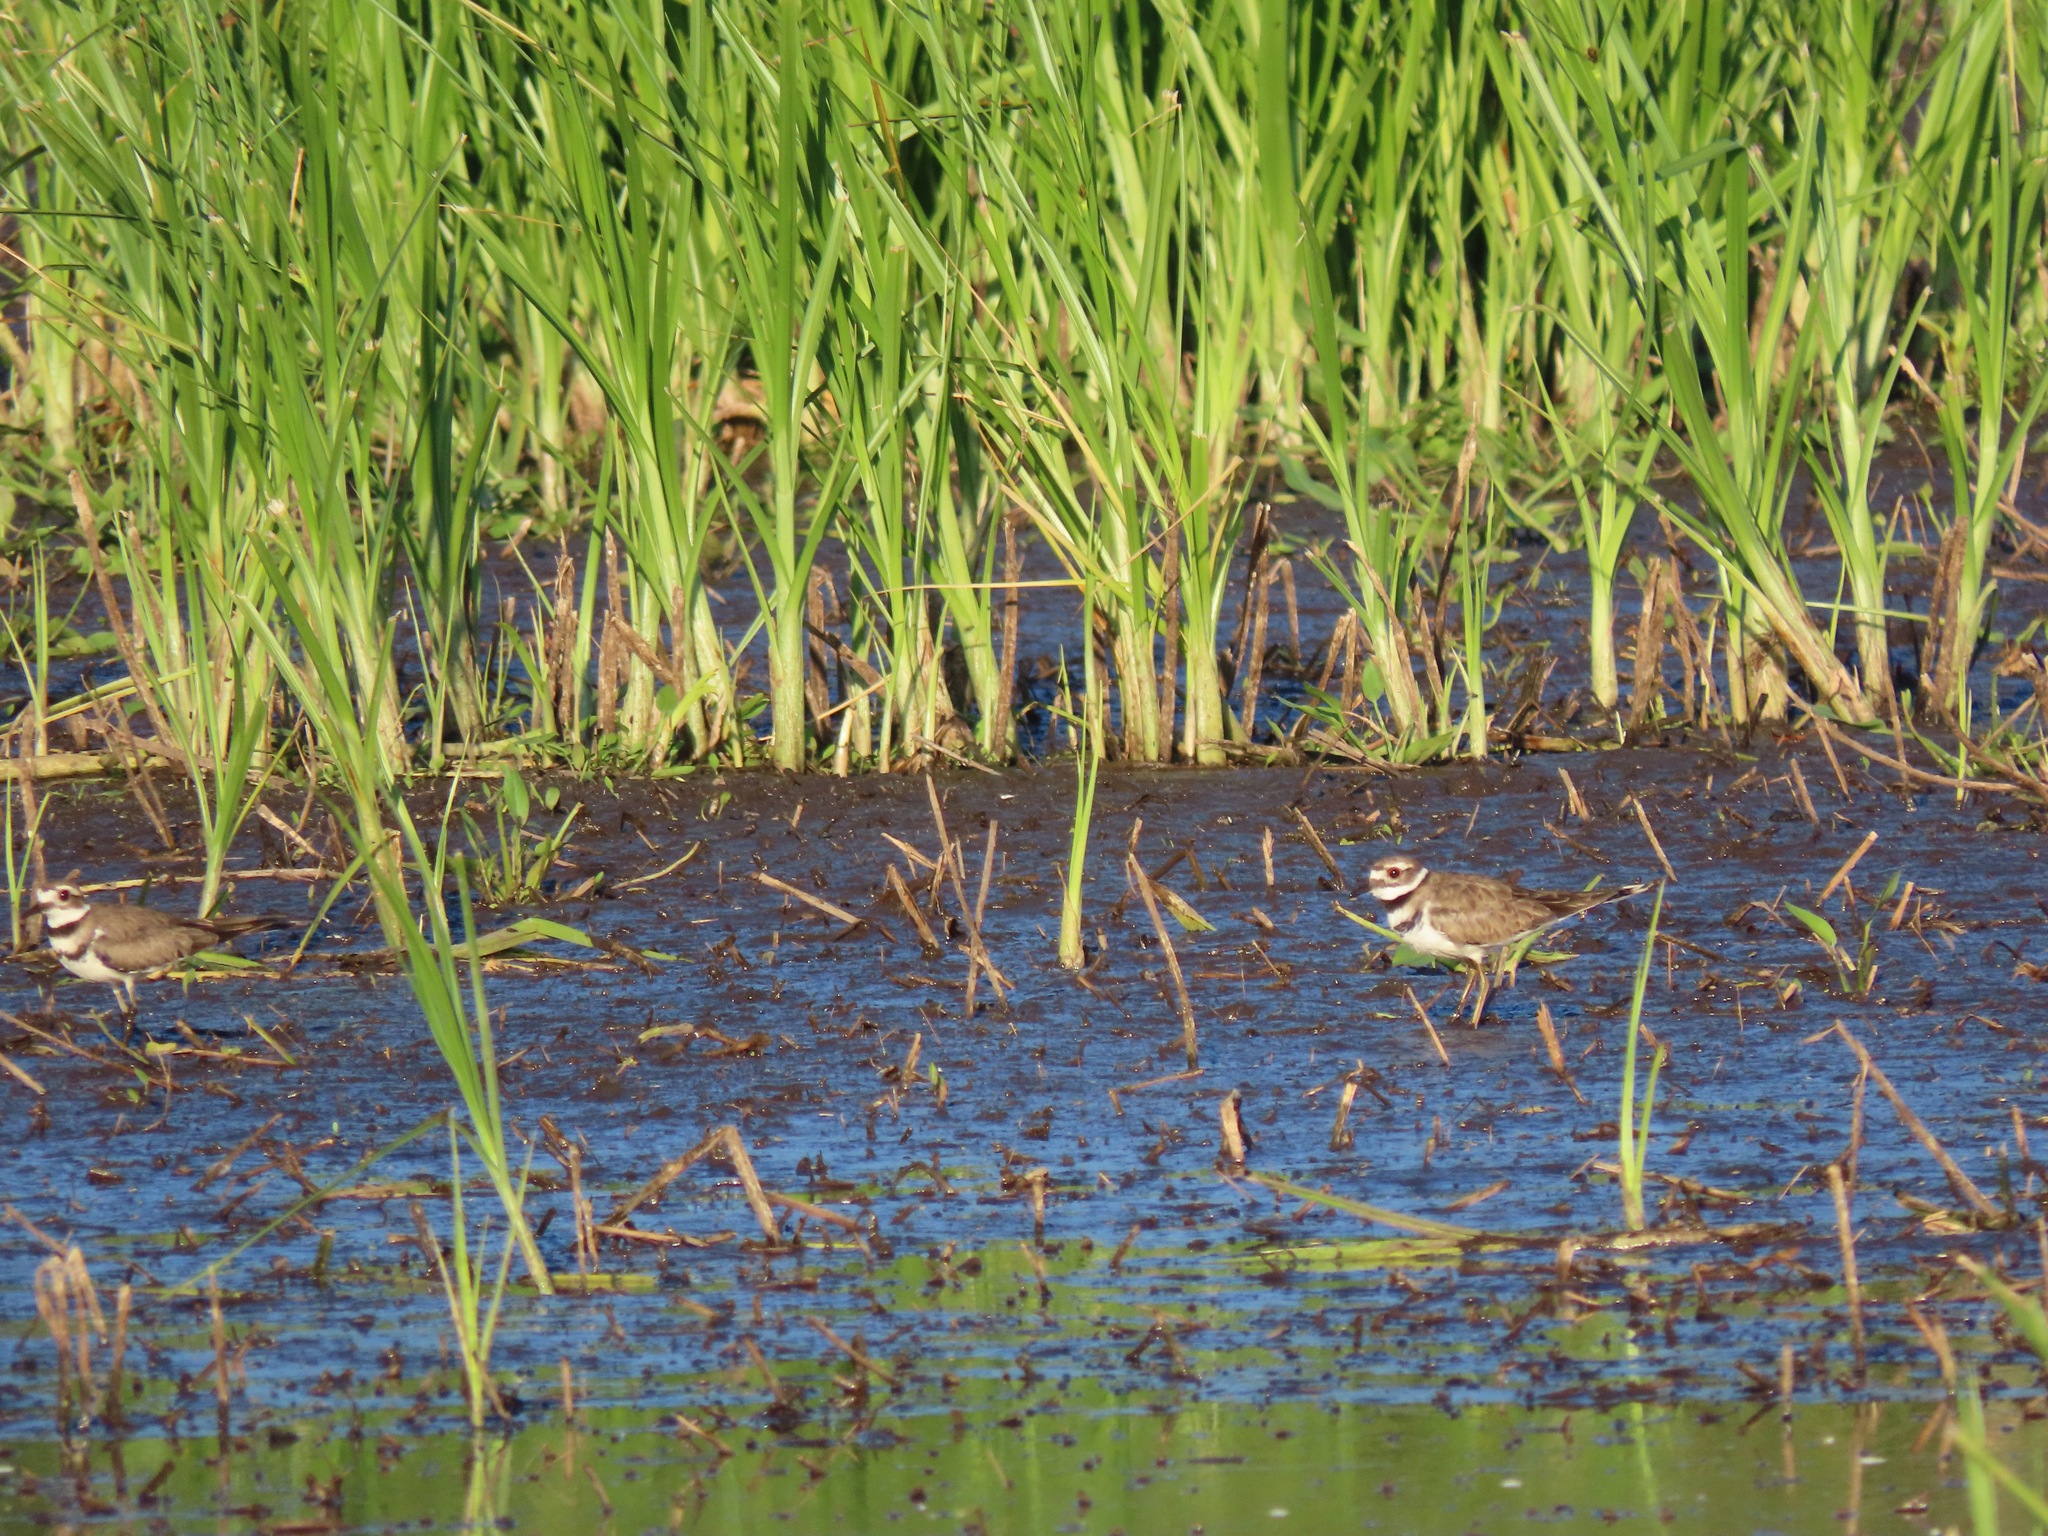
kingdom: Animalia
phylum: Chordata
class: Aves
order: Charadriiformes
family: Charadriidae
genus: Charadrius
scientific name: Charadrius vociferus
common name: Killdeer
